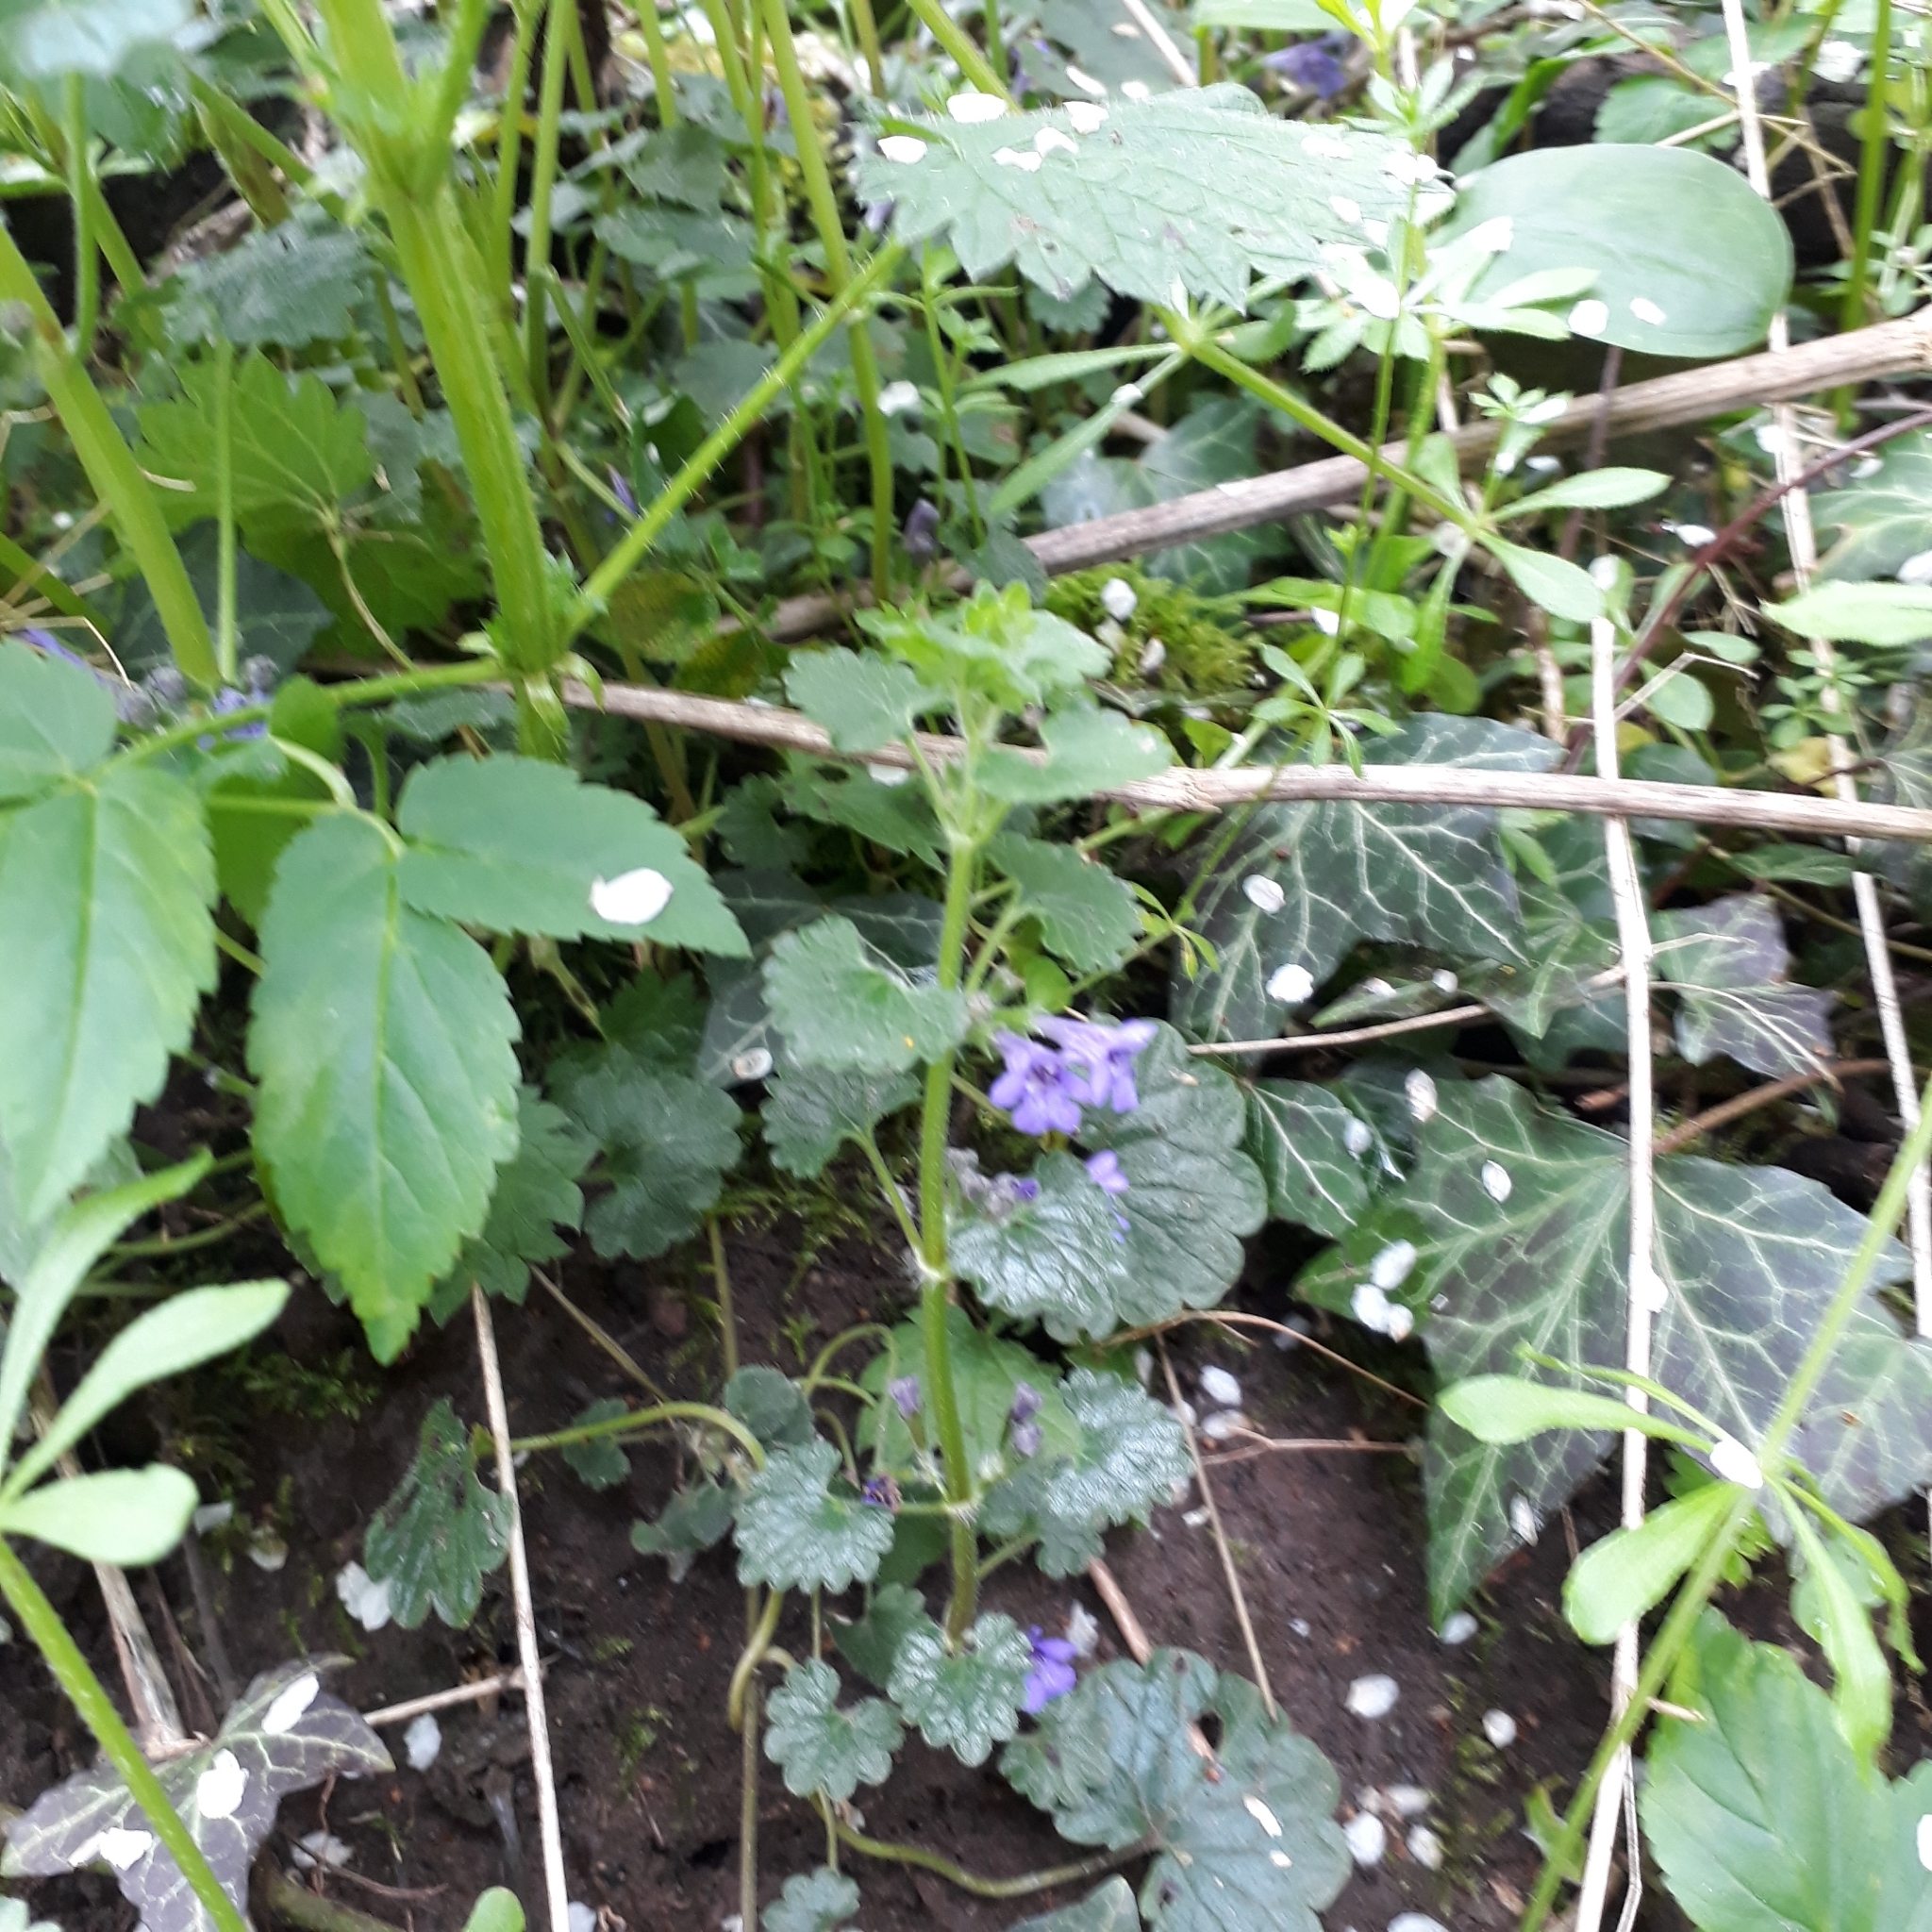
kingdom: Plantae
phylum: Tracheophyta
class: Magnoliopsida
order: Lamiales
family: Lamiaceae
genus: Glechoma
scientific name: Glechoma hederacea
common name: Ground ivy
